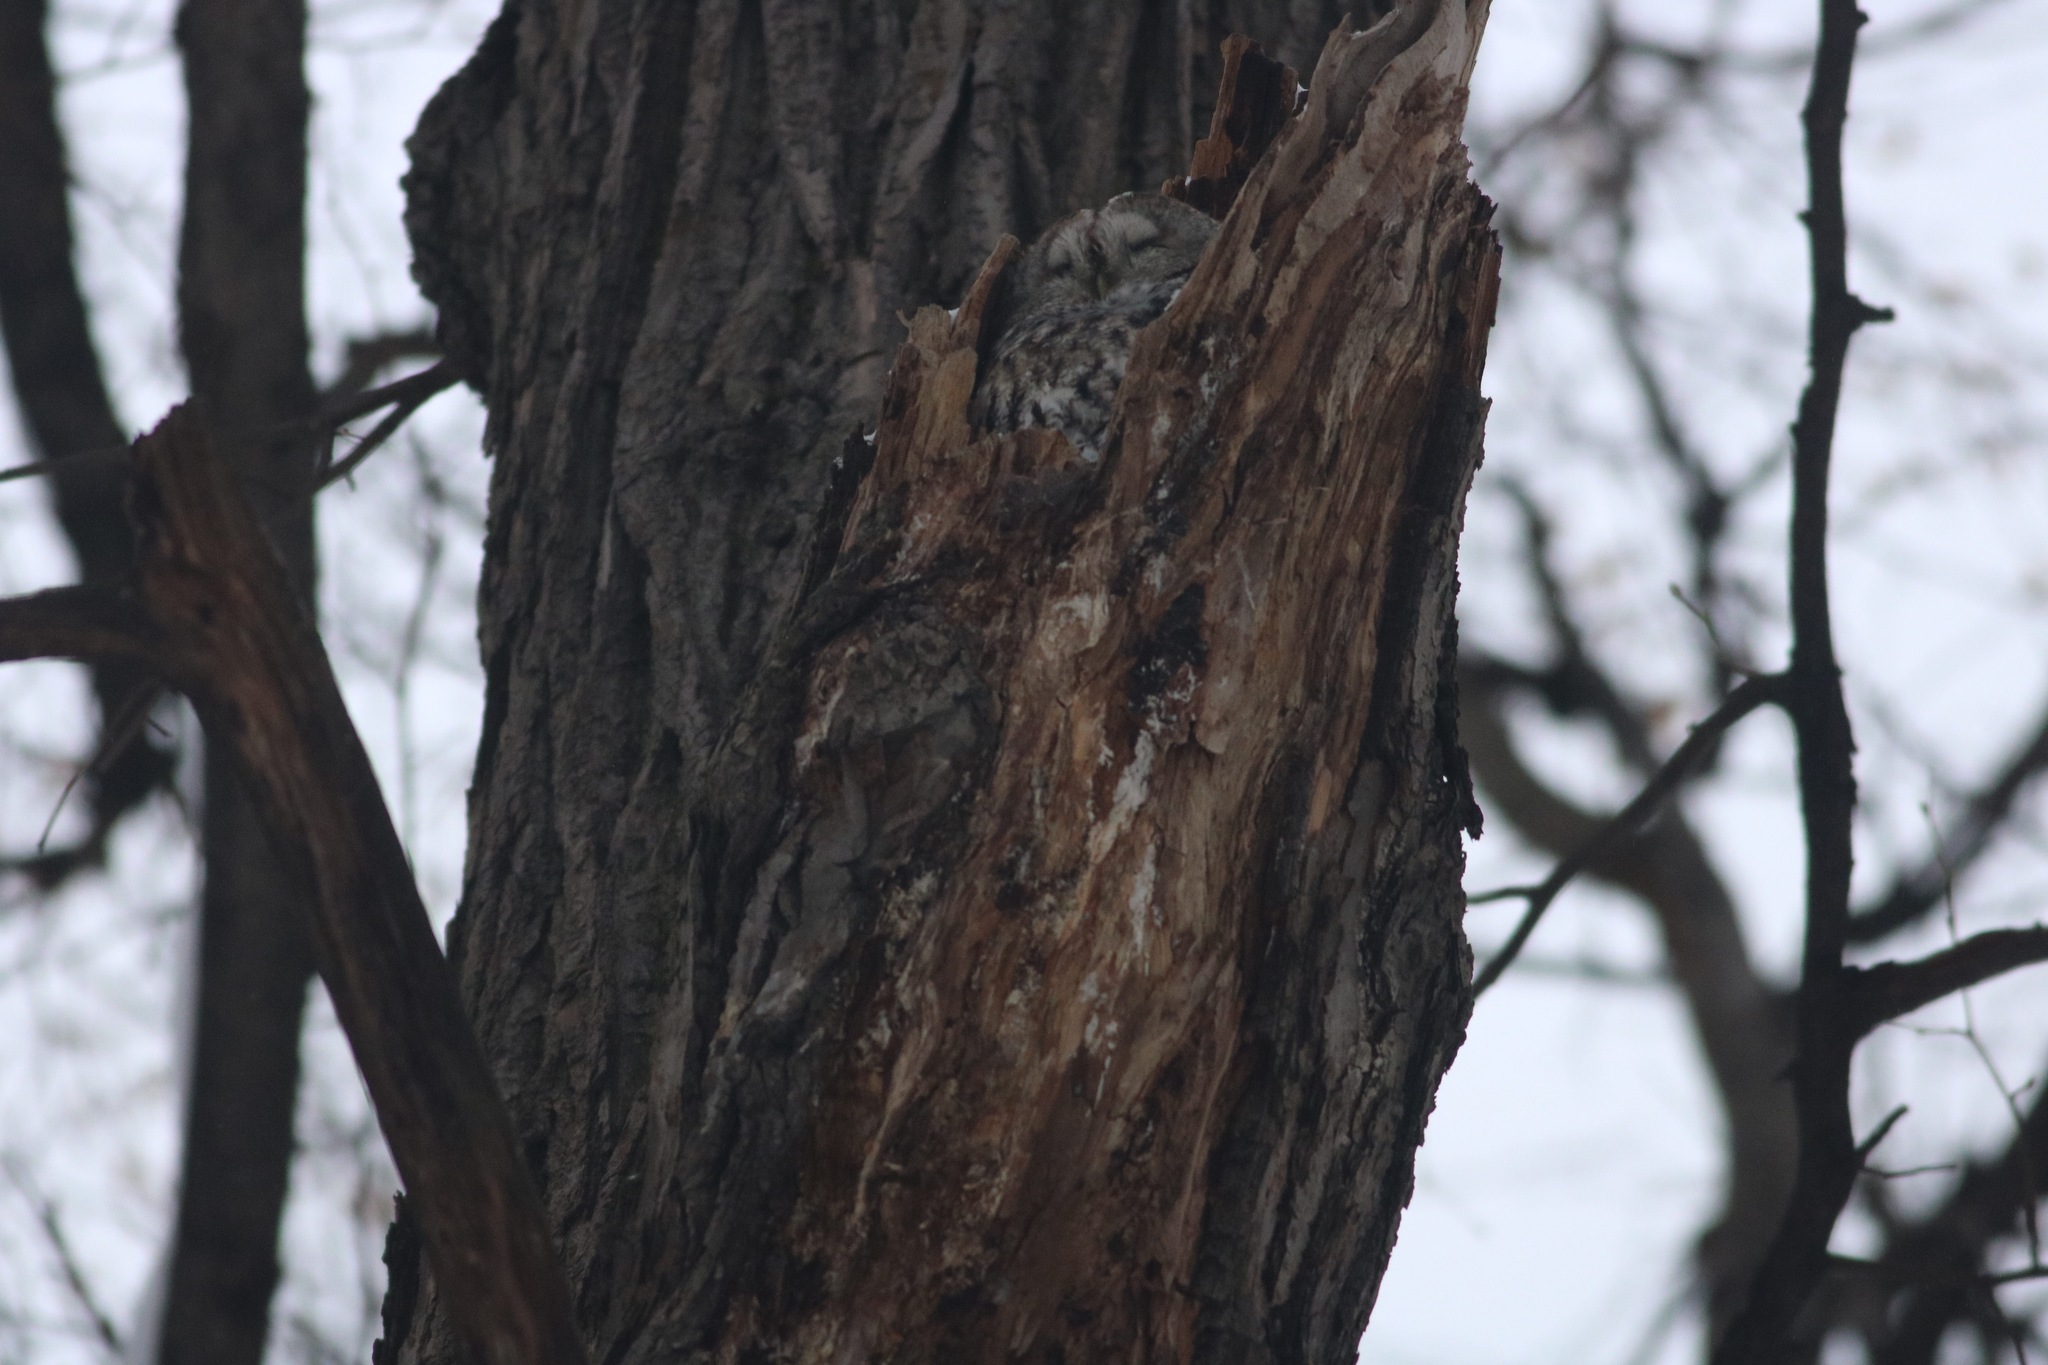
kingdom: Animalia
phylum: Chordata
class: Aves
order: Strigiformes
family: Strigidae
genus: Strix
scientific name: Strix aluco
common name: Tawny owl
